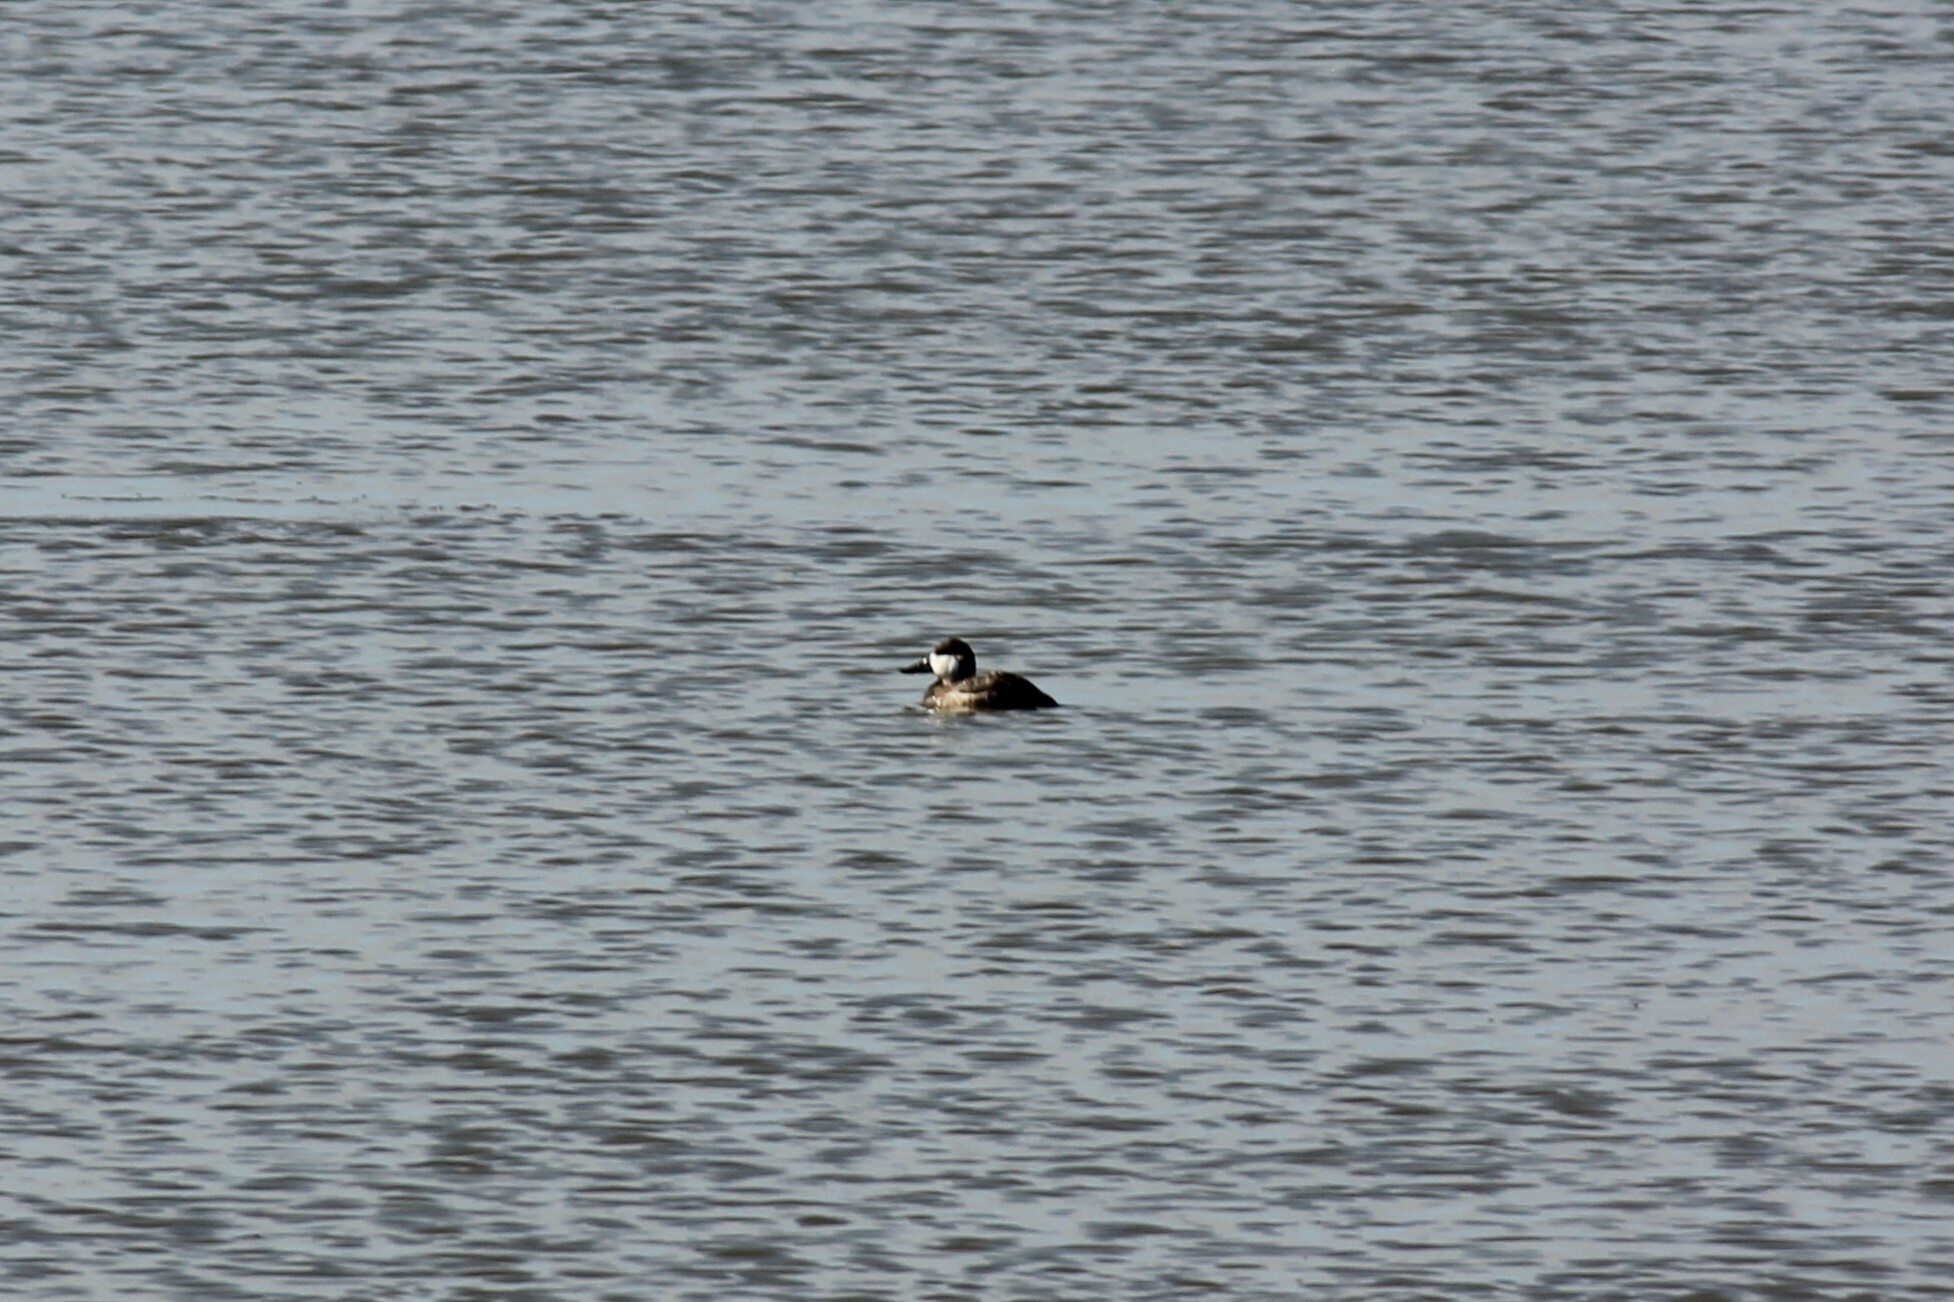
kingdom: Animalia
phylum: Chordata
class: Aves
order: Anseriformes
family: Anatidae
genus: Oxyura
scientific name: Oxyura jamaicensis
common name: Ruddy duck
